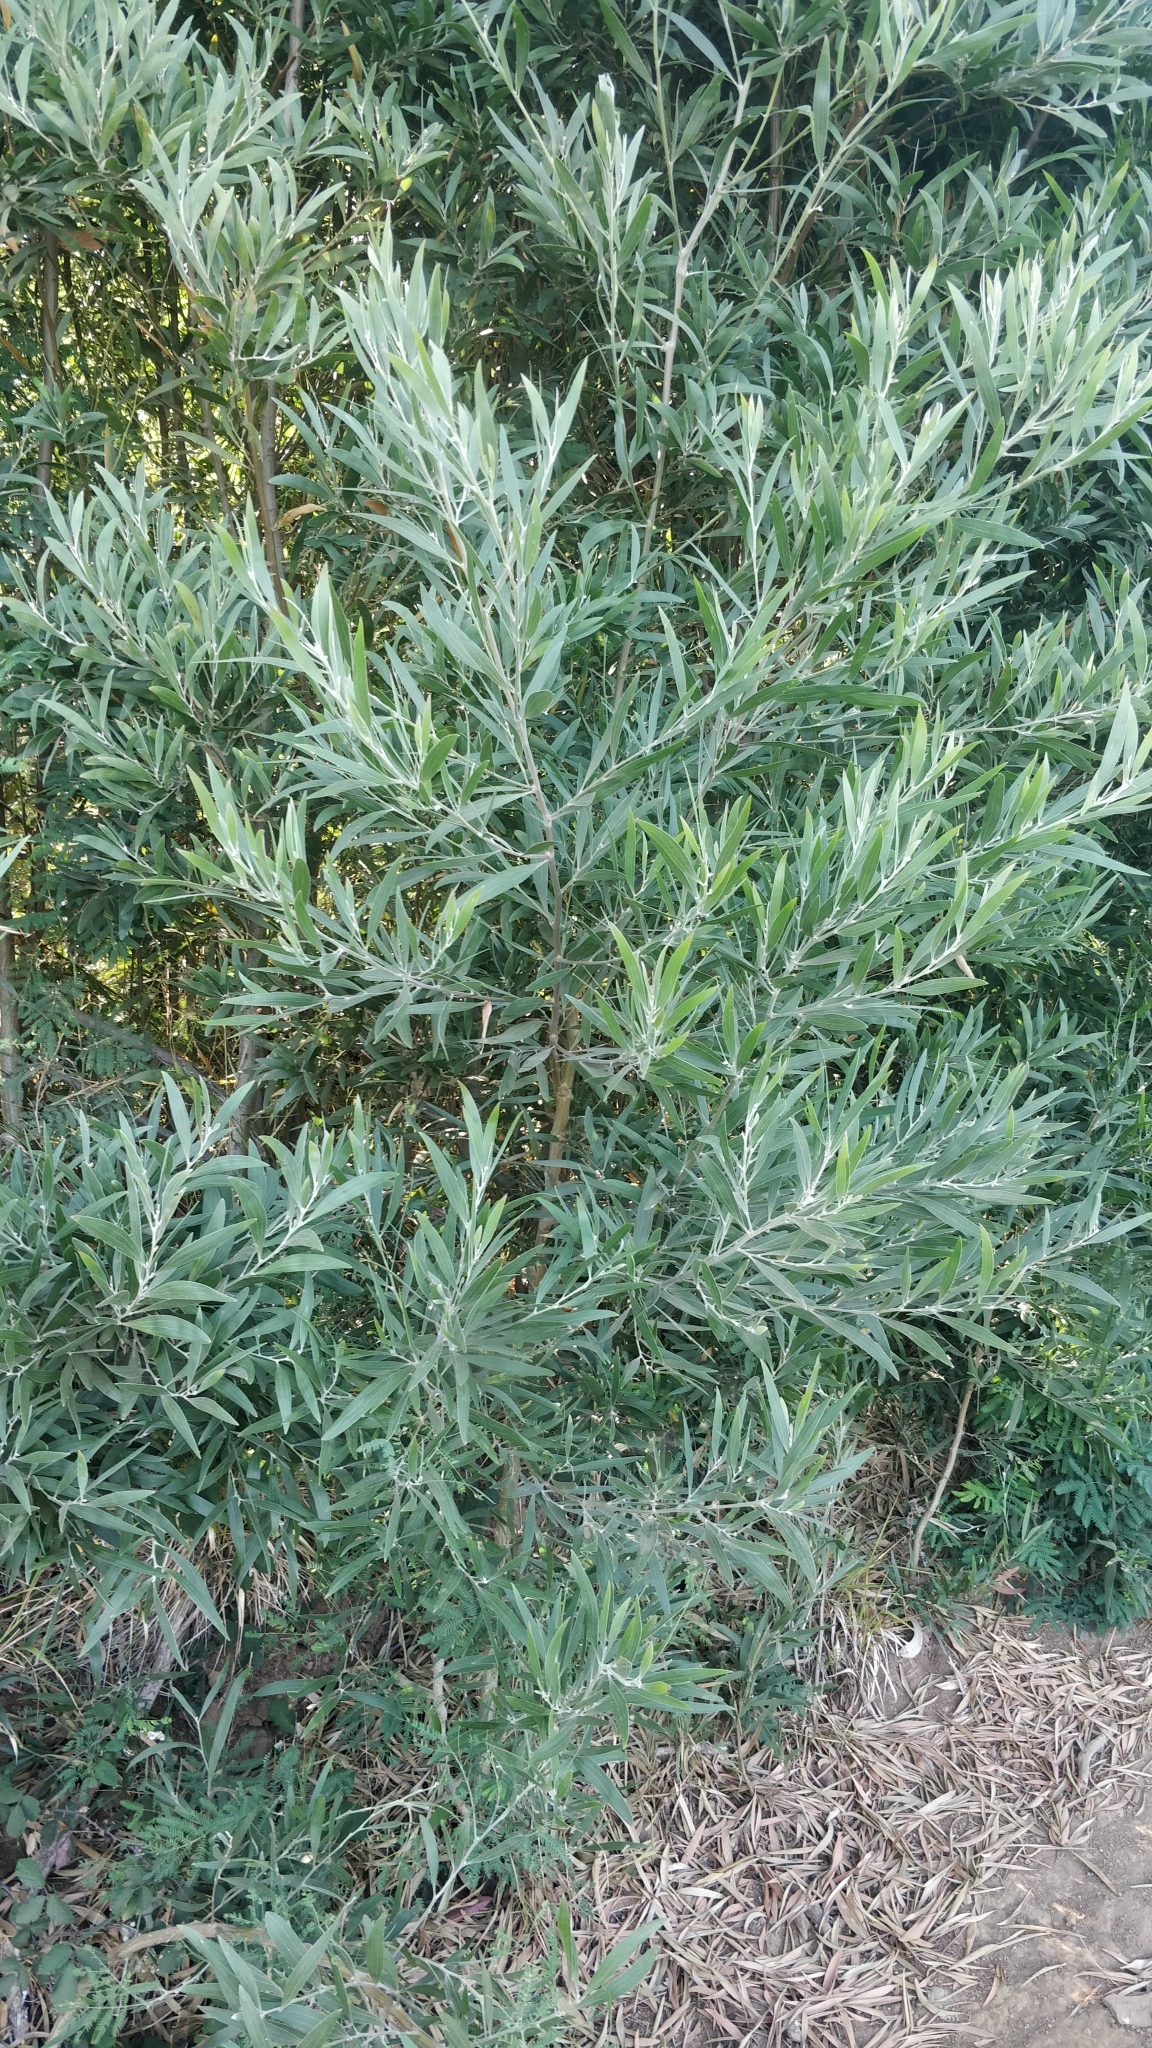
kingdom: Plantae
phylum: Tracheophyta
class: Magnoliopsida
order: Fabales
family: Fabaceae
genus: Acacia
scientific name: Acacia melanoxylon
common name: Blackwood
